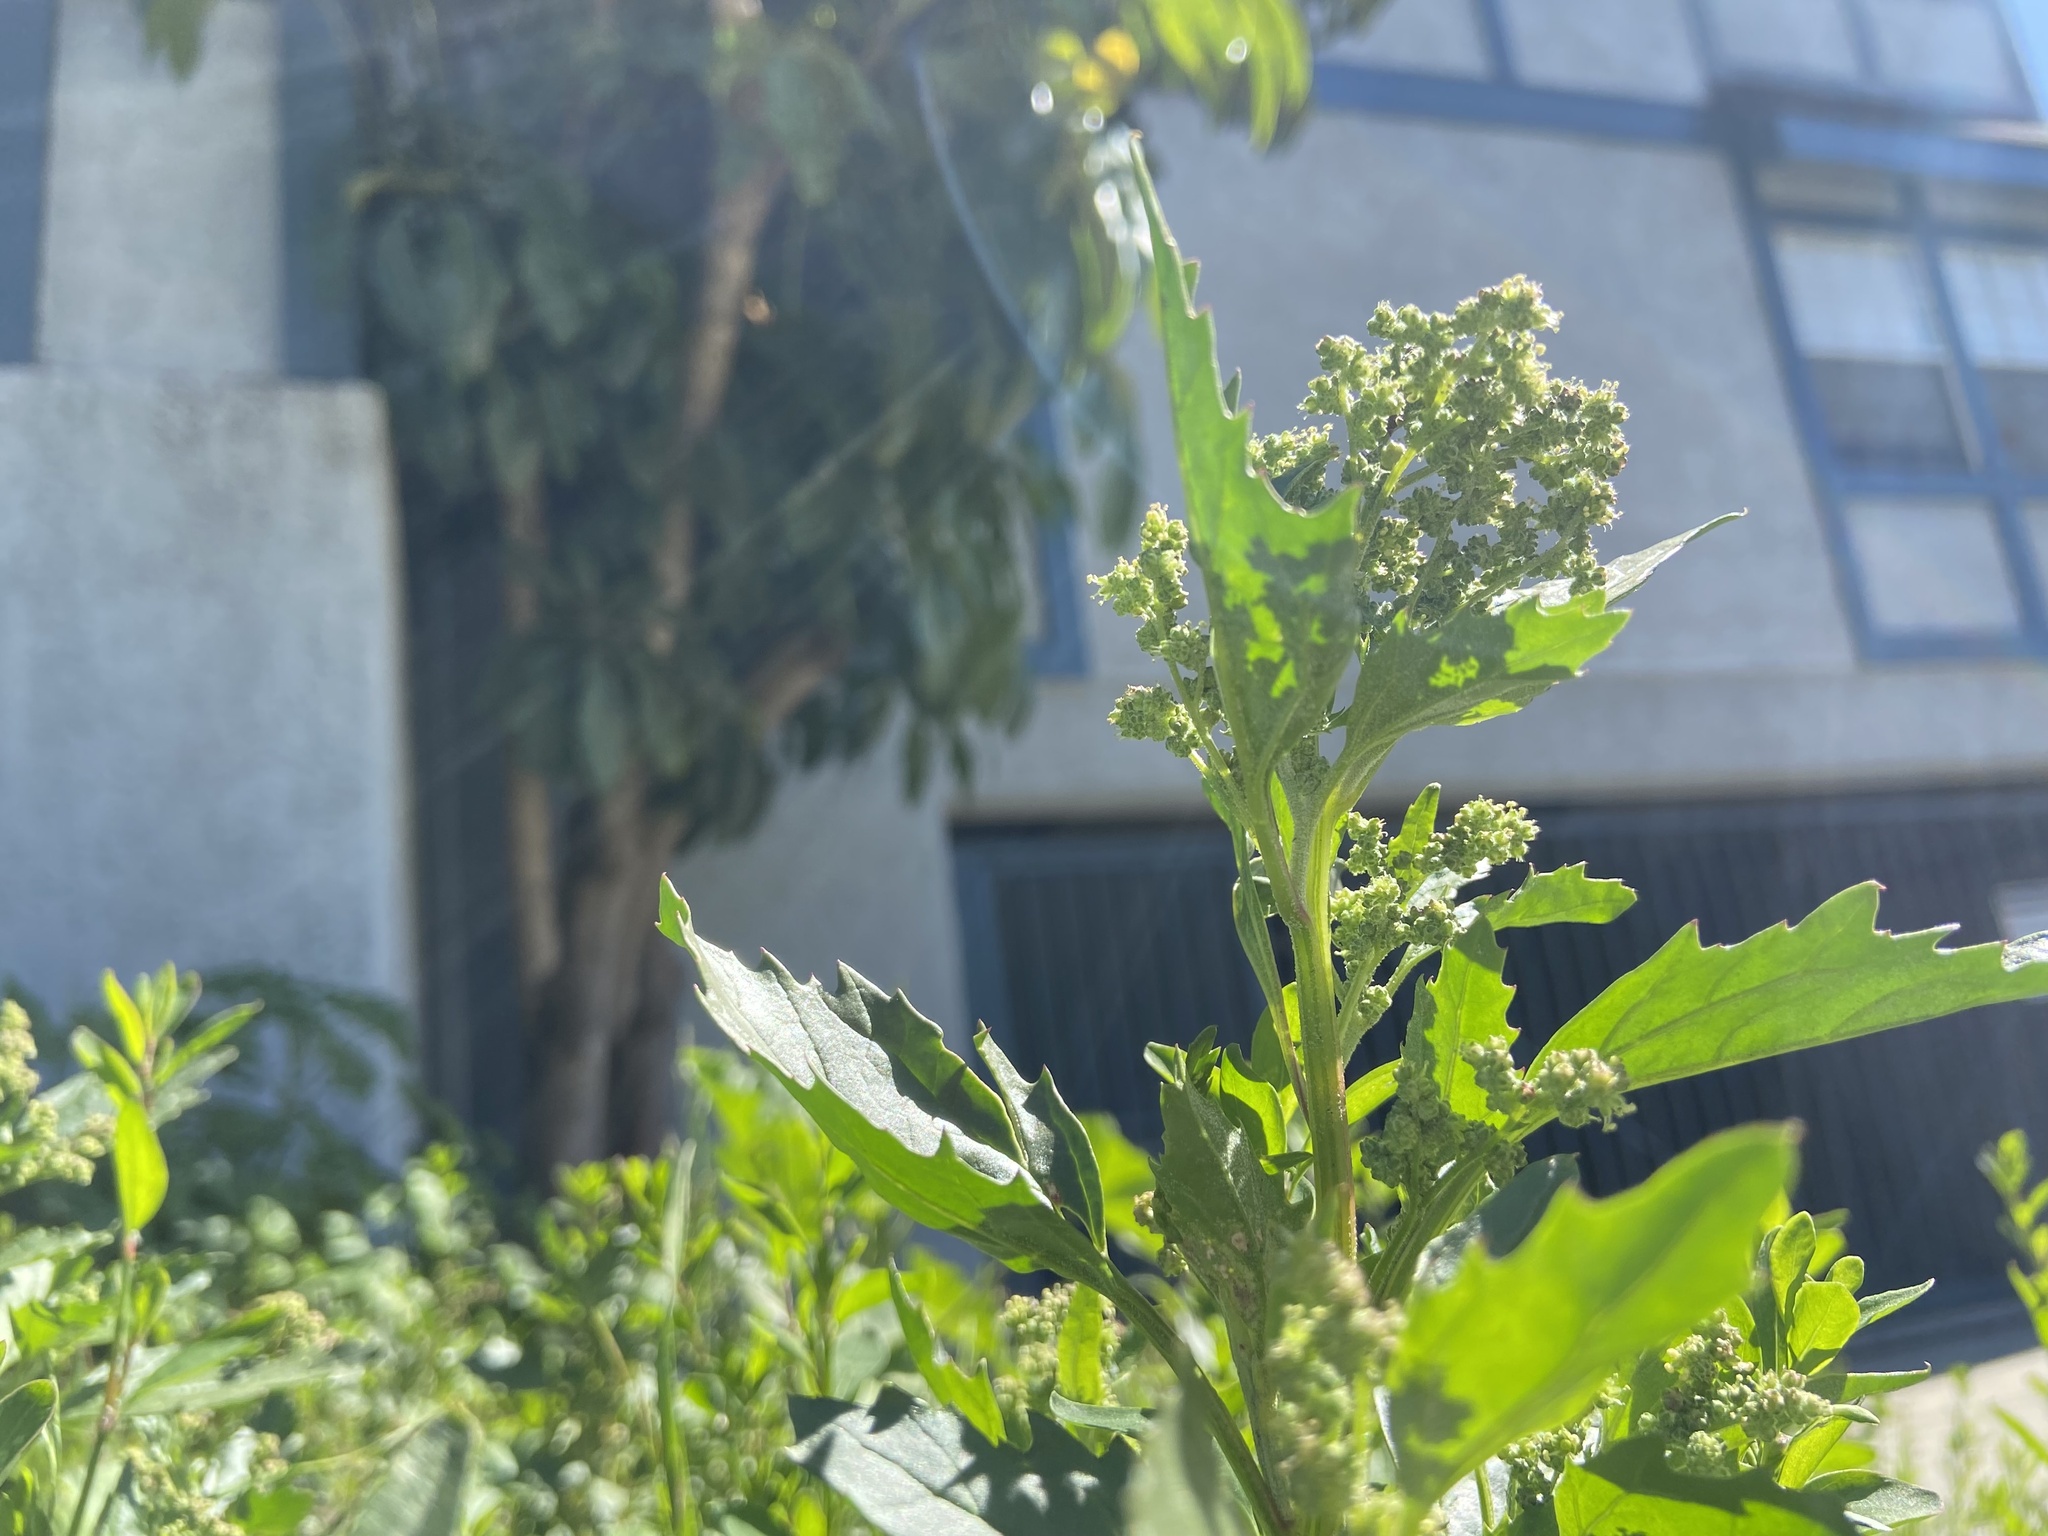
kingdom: Plantae
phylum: Tracheophyta
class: Magnoliopsida
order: Caryophyllales
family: Amaranthaceae
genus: Chenopodiastrum
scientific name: Chenopodiastrum murale
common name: Sowbane
